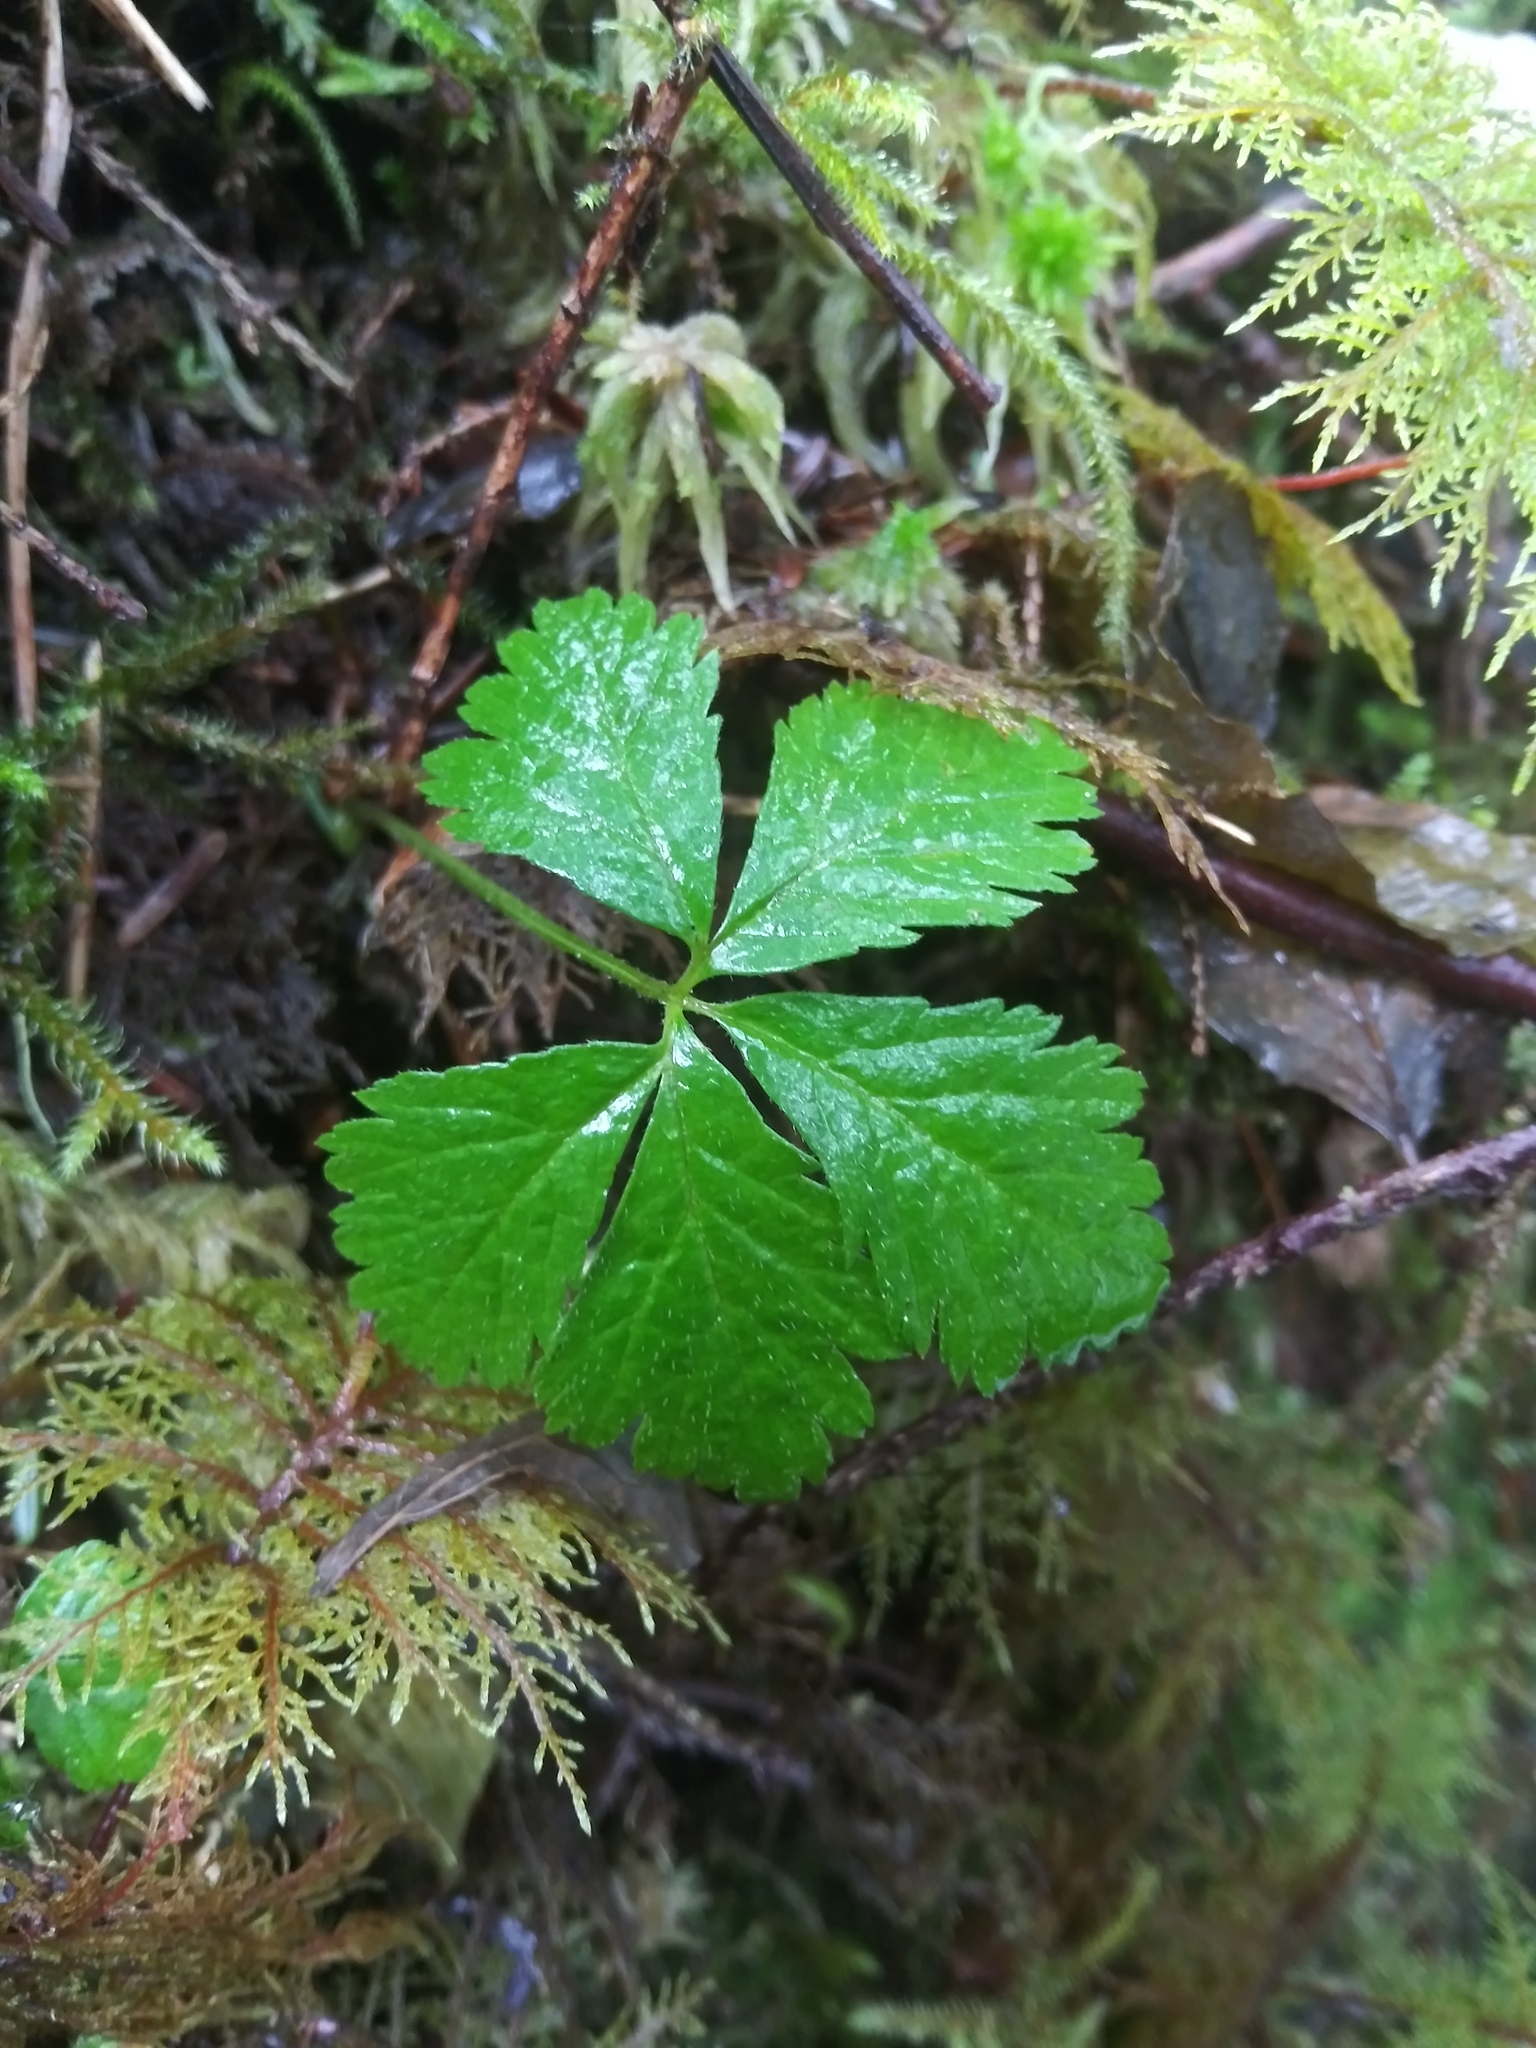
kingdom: Plantae
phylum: Tracheophyta
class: Magnoliopsida
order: Rosales
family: Rosaceae
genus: Rubus
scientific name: Rubus pedatus
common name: Creeping raspberry
